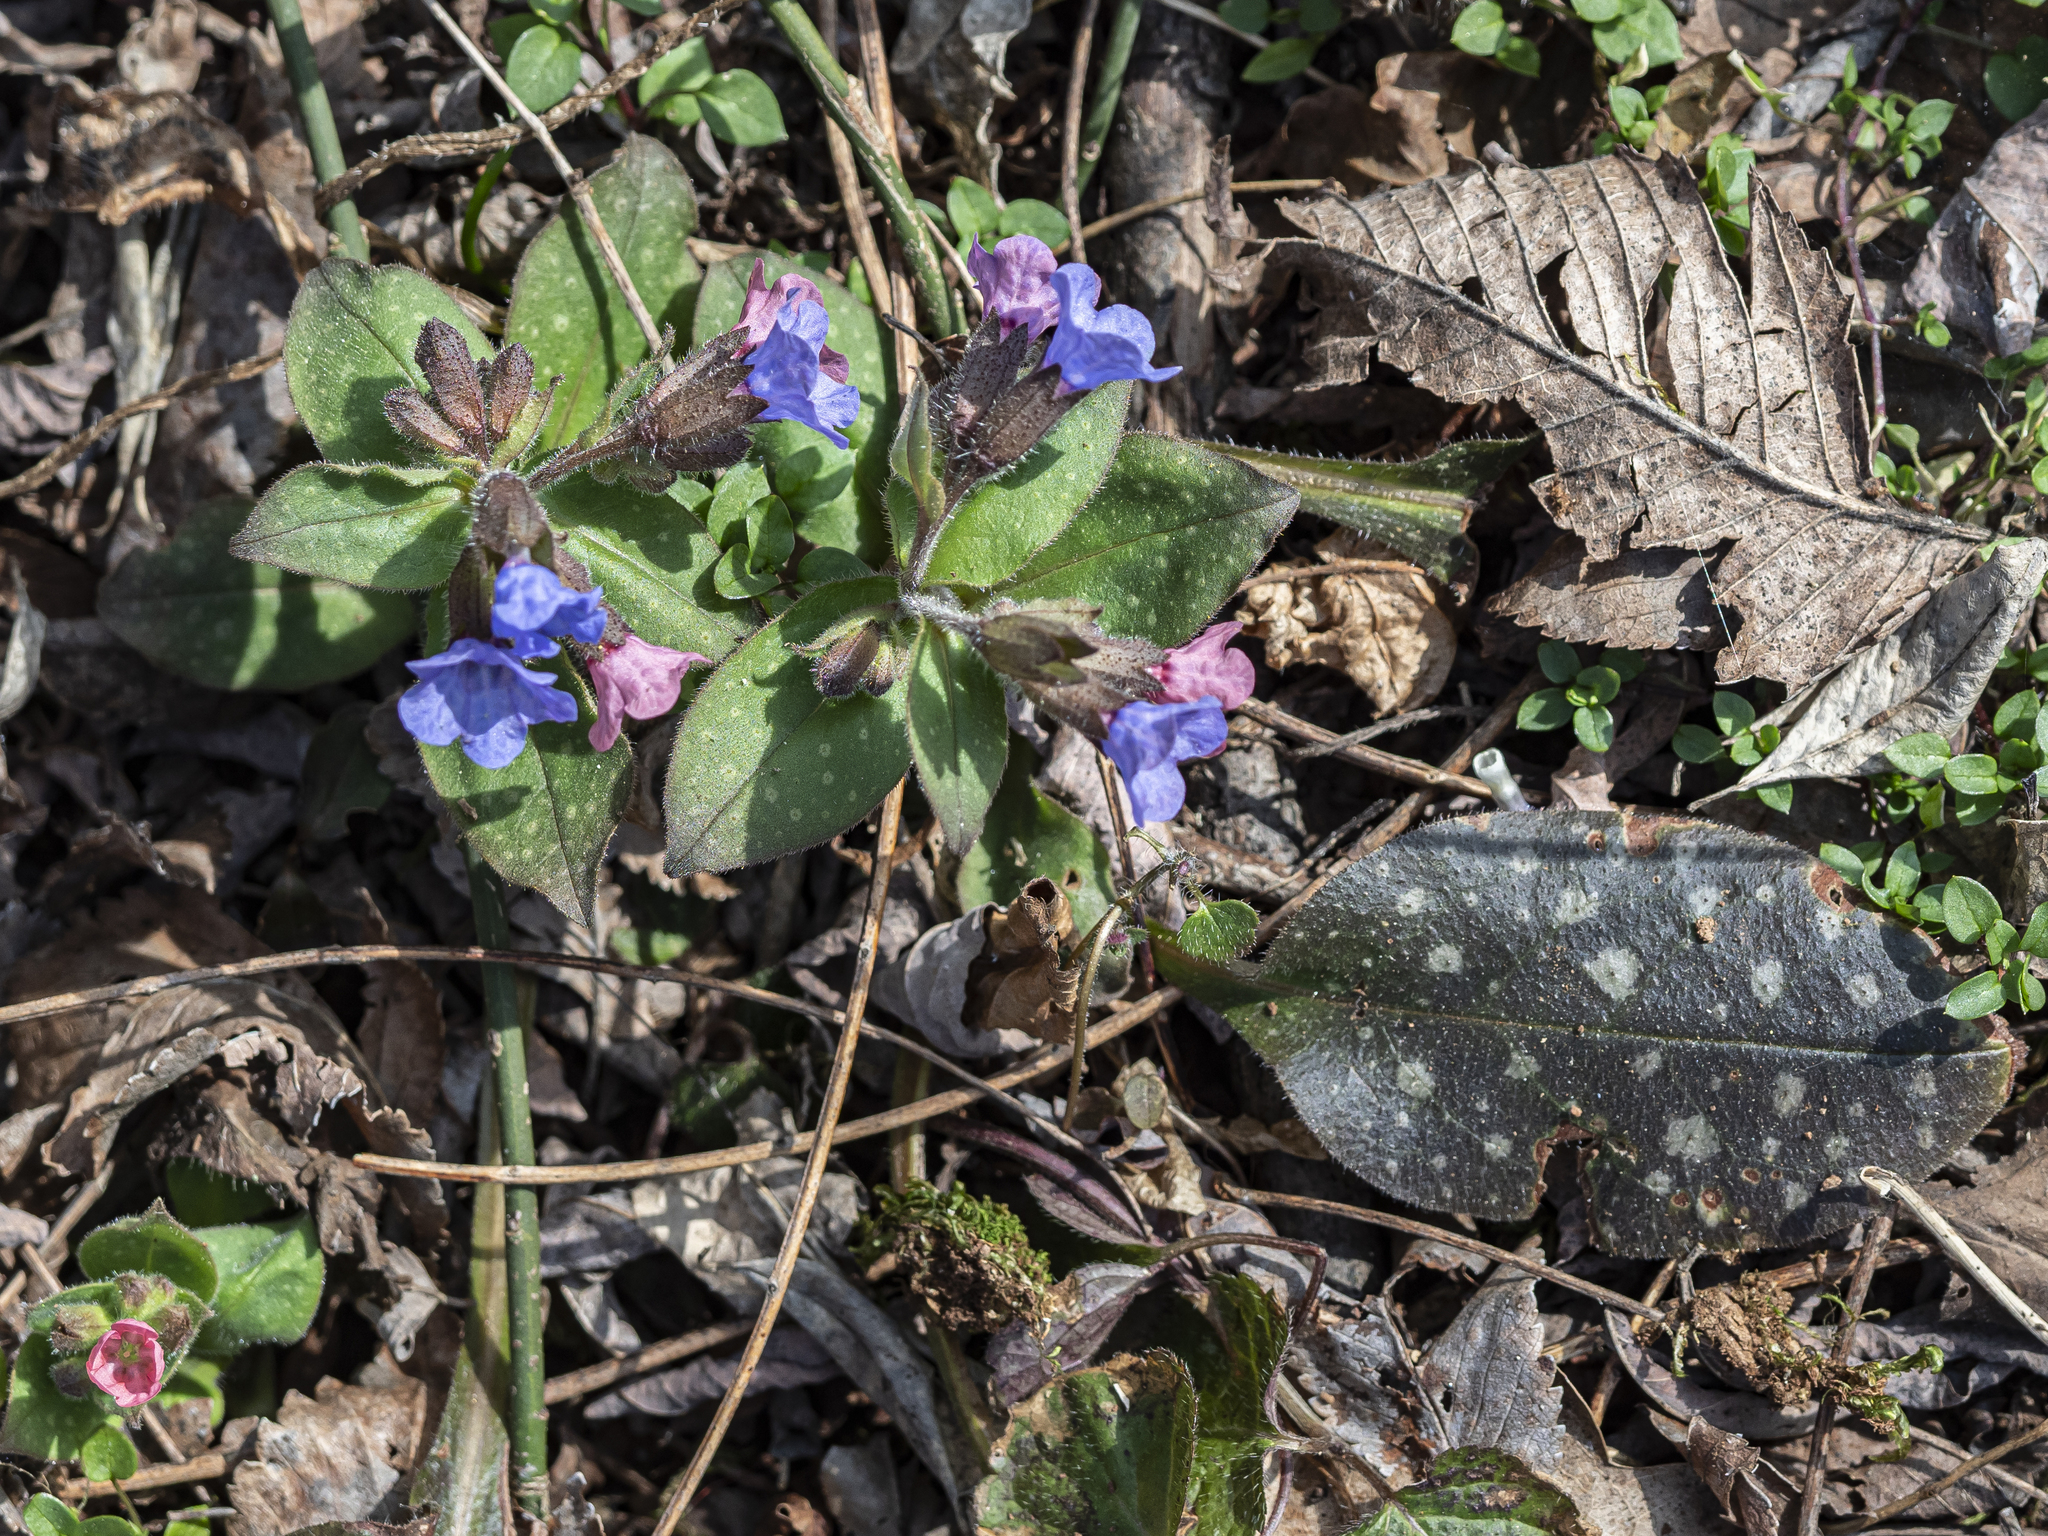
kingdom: Plantae
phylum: Tracheophyta
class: Magnoliopsida
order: Boraginales
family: Boraginaceae
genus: Pulmonaria
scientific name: Pulmonaria officinalis
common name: Lungwort
